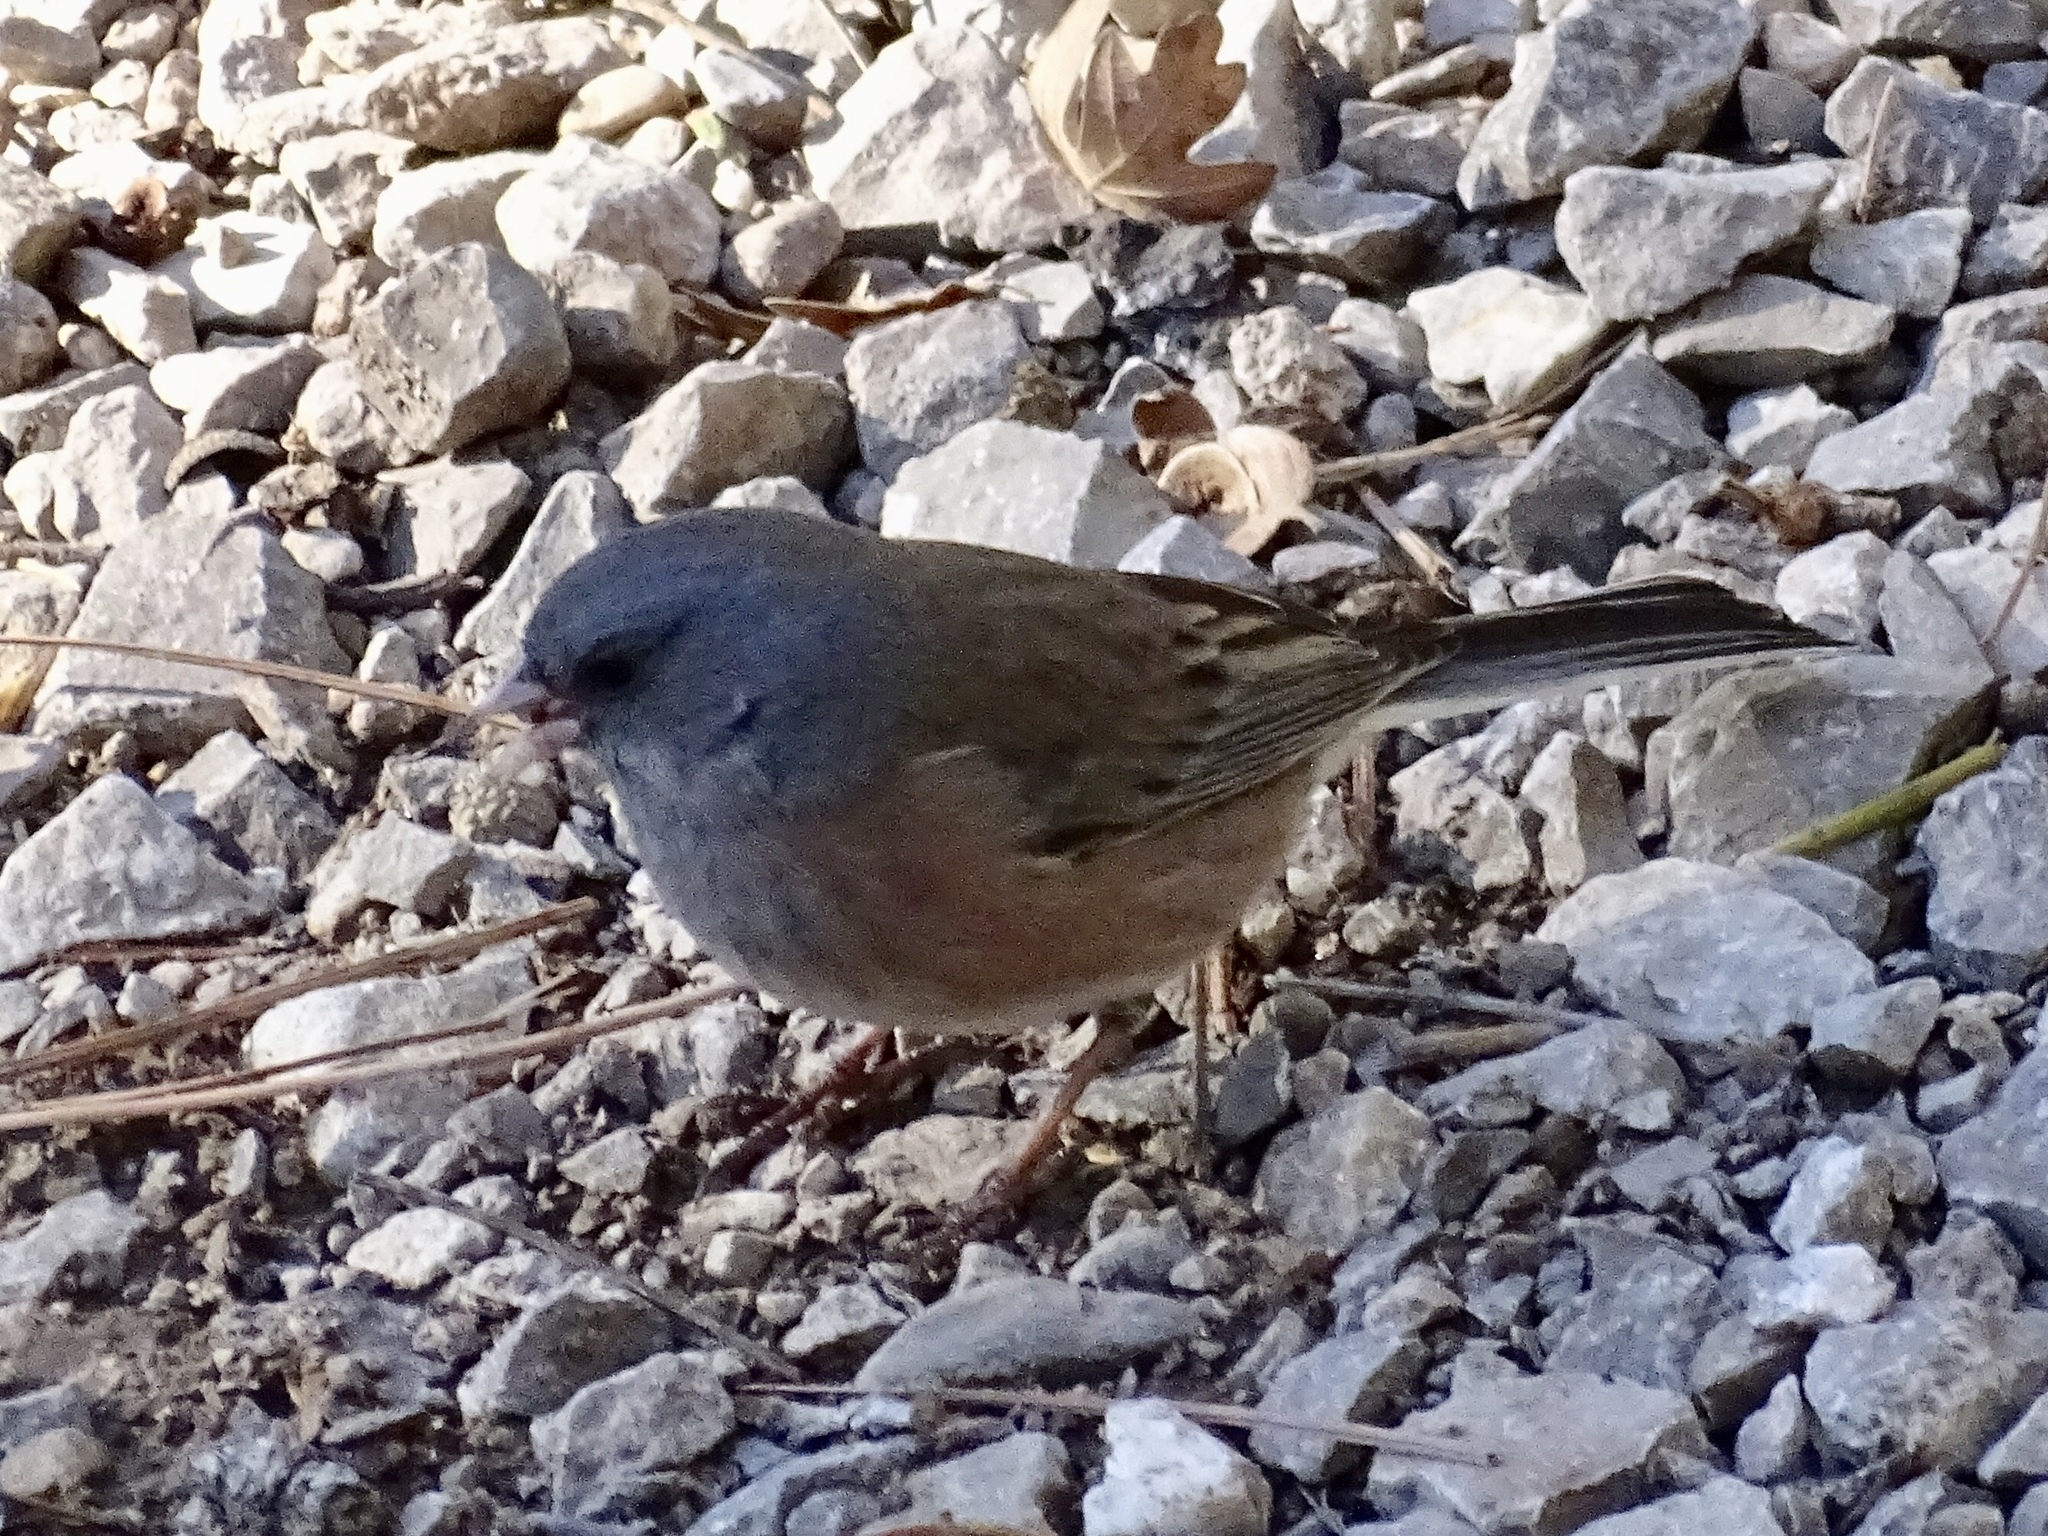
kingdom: Animalia
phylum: Chordata
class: Aves
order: Passeriformes
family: Passerellidae
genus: Junco
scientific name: Junco hyemalis
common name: Dark-eyed junco
